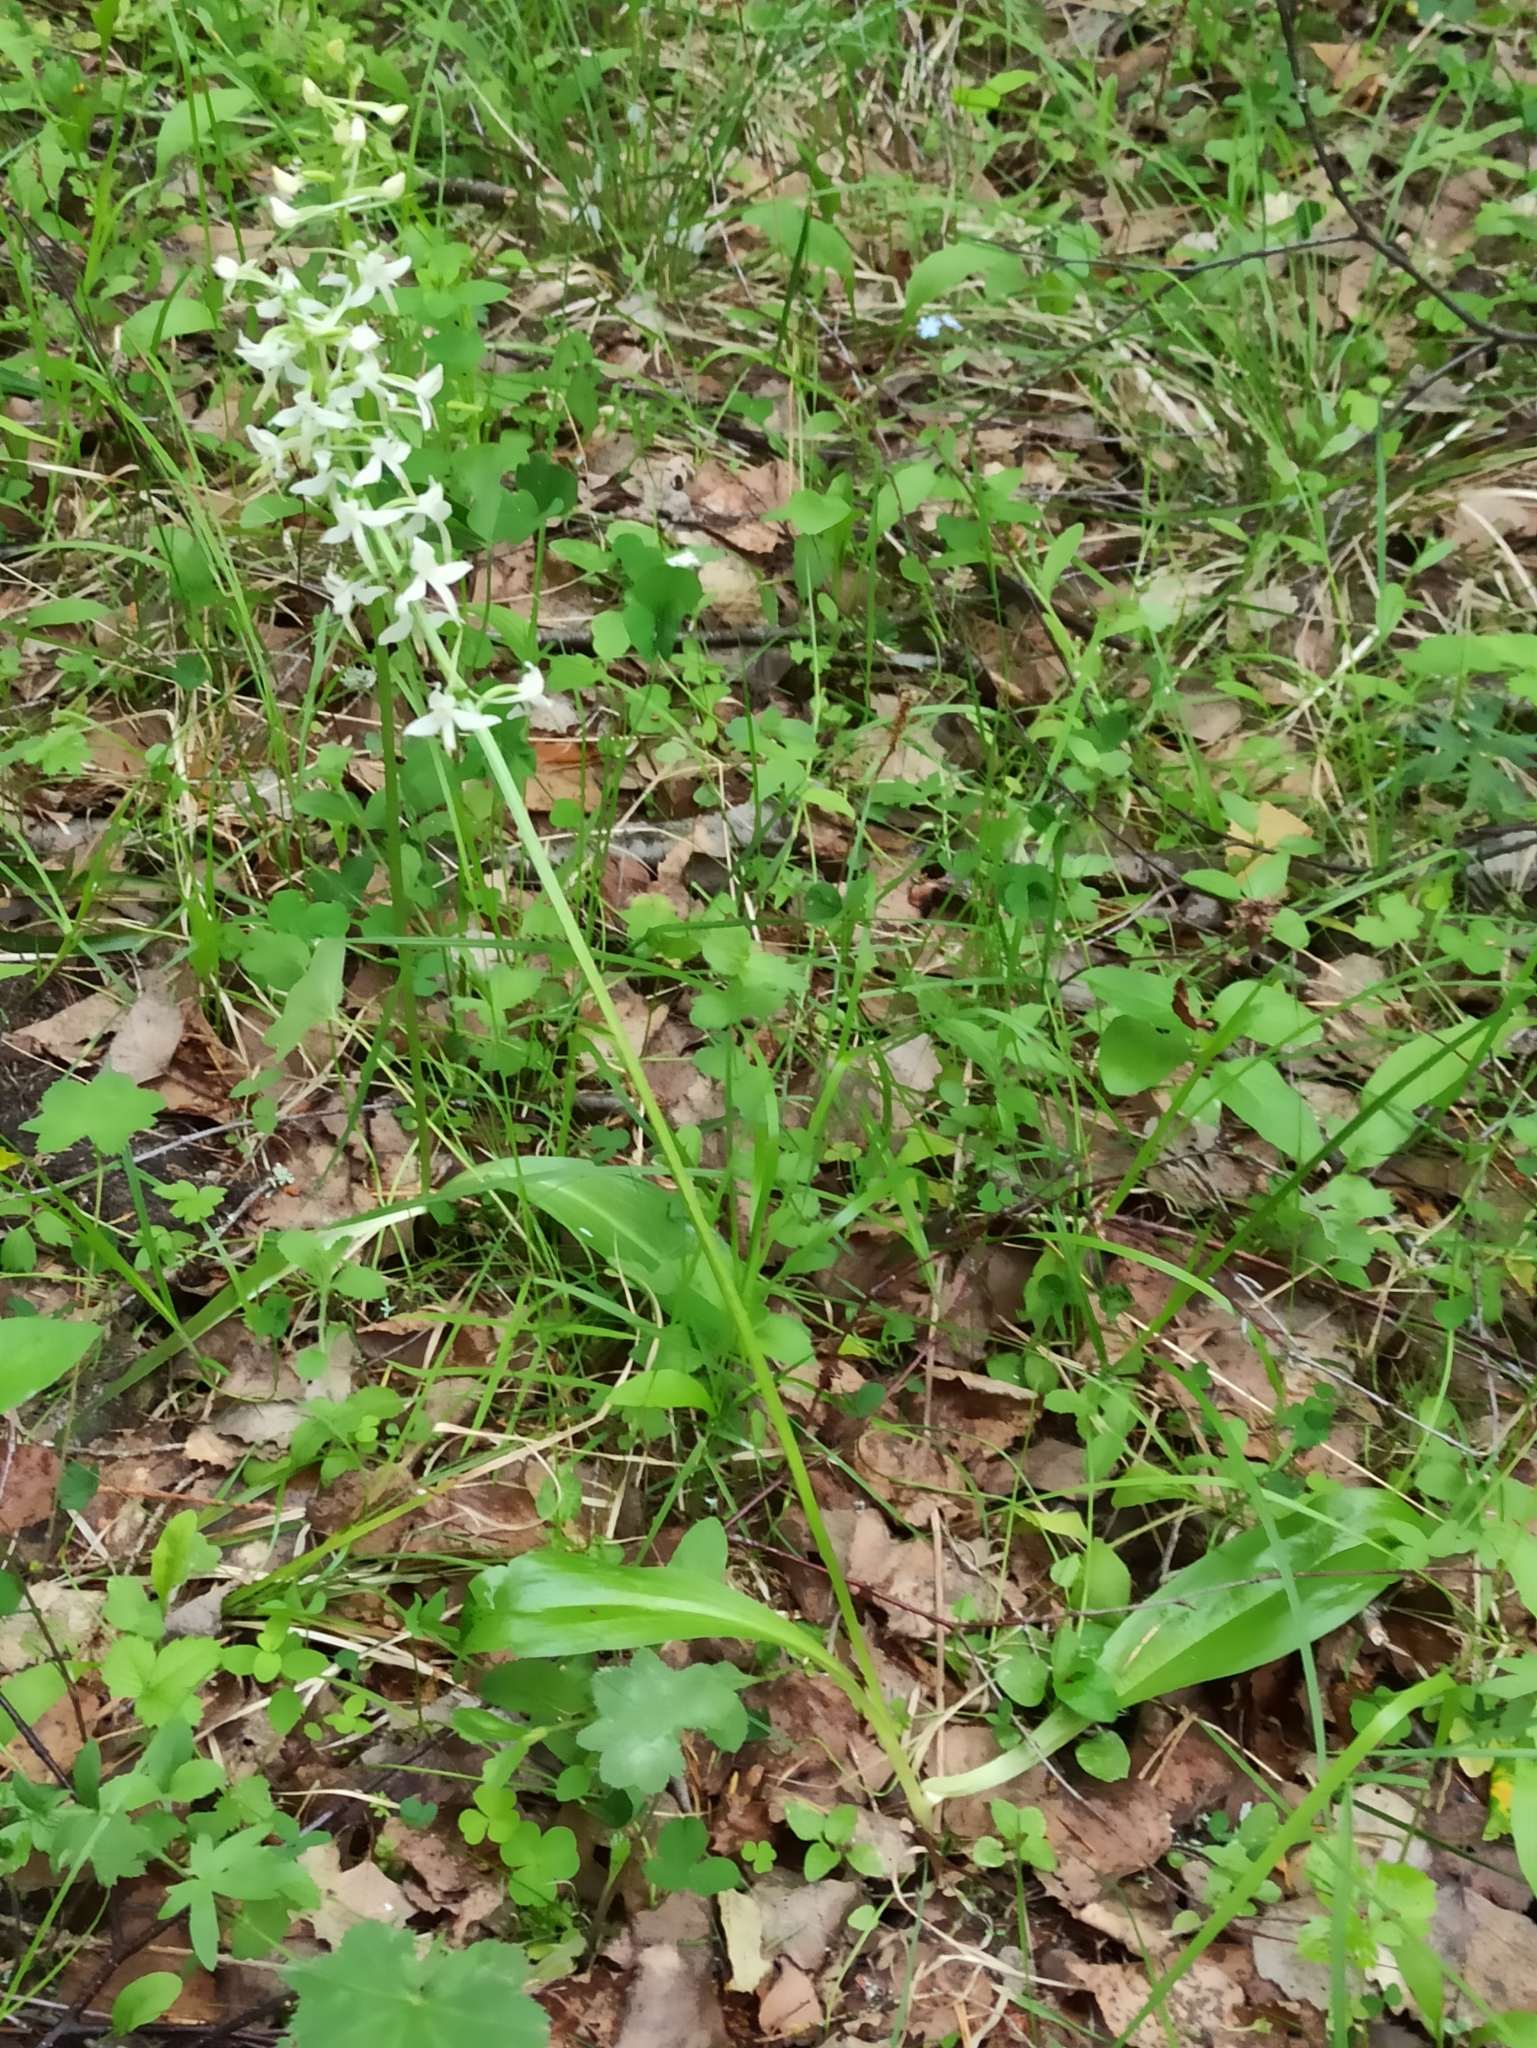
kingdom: Plantae
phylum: Tracheophyta
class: Liliopsida
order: Asparagales
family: Orchidaceae
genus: Platanthera
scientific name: Platanthera bifolia
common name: Lesser butterfly-orchid
